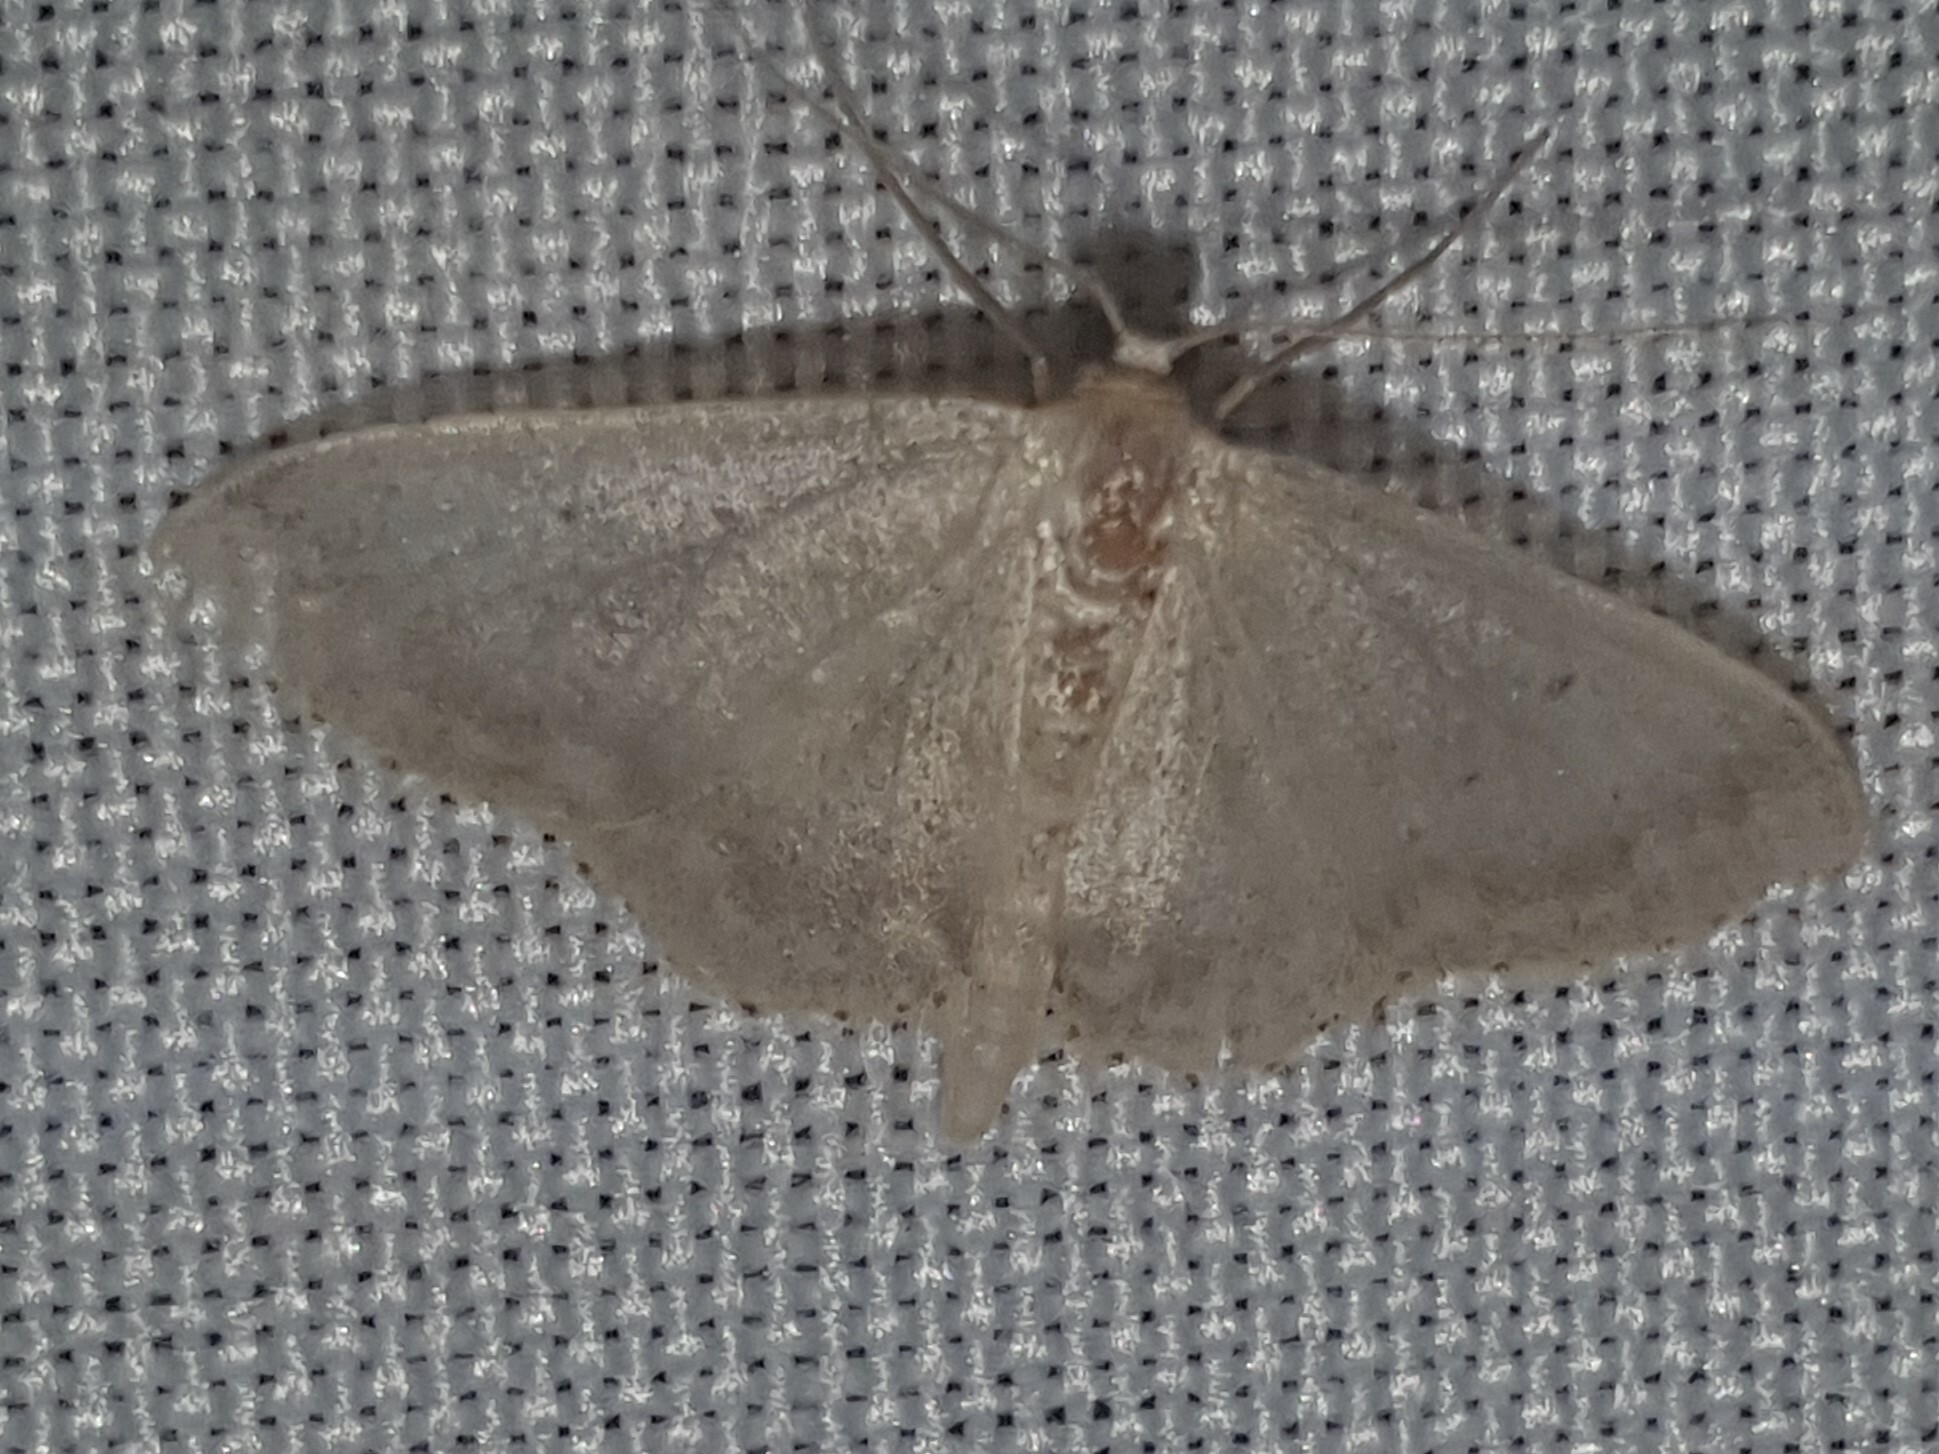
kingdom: Animalia
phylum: Arthropoda
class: Insecta
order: Lepidoptera
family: Geometridae
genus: Idaea
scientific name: Idaea biselata
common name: Small fan-footed wave
